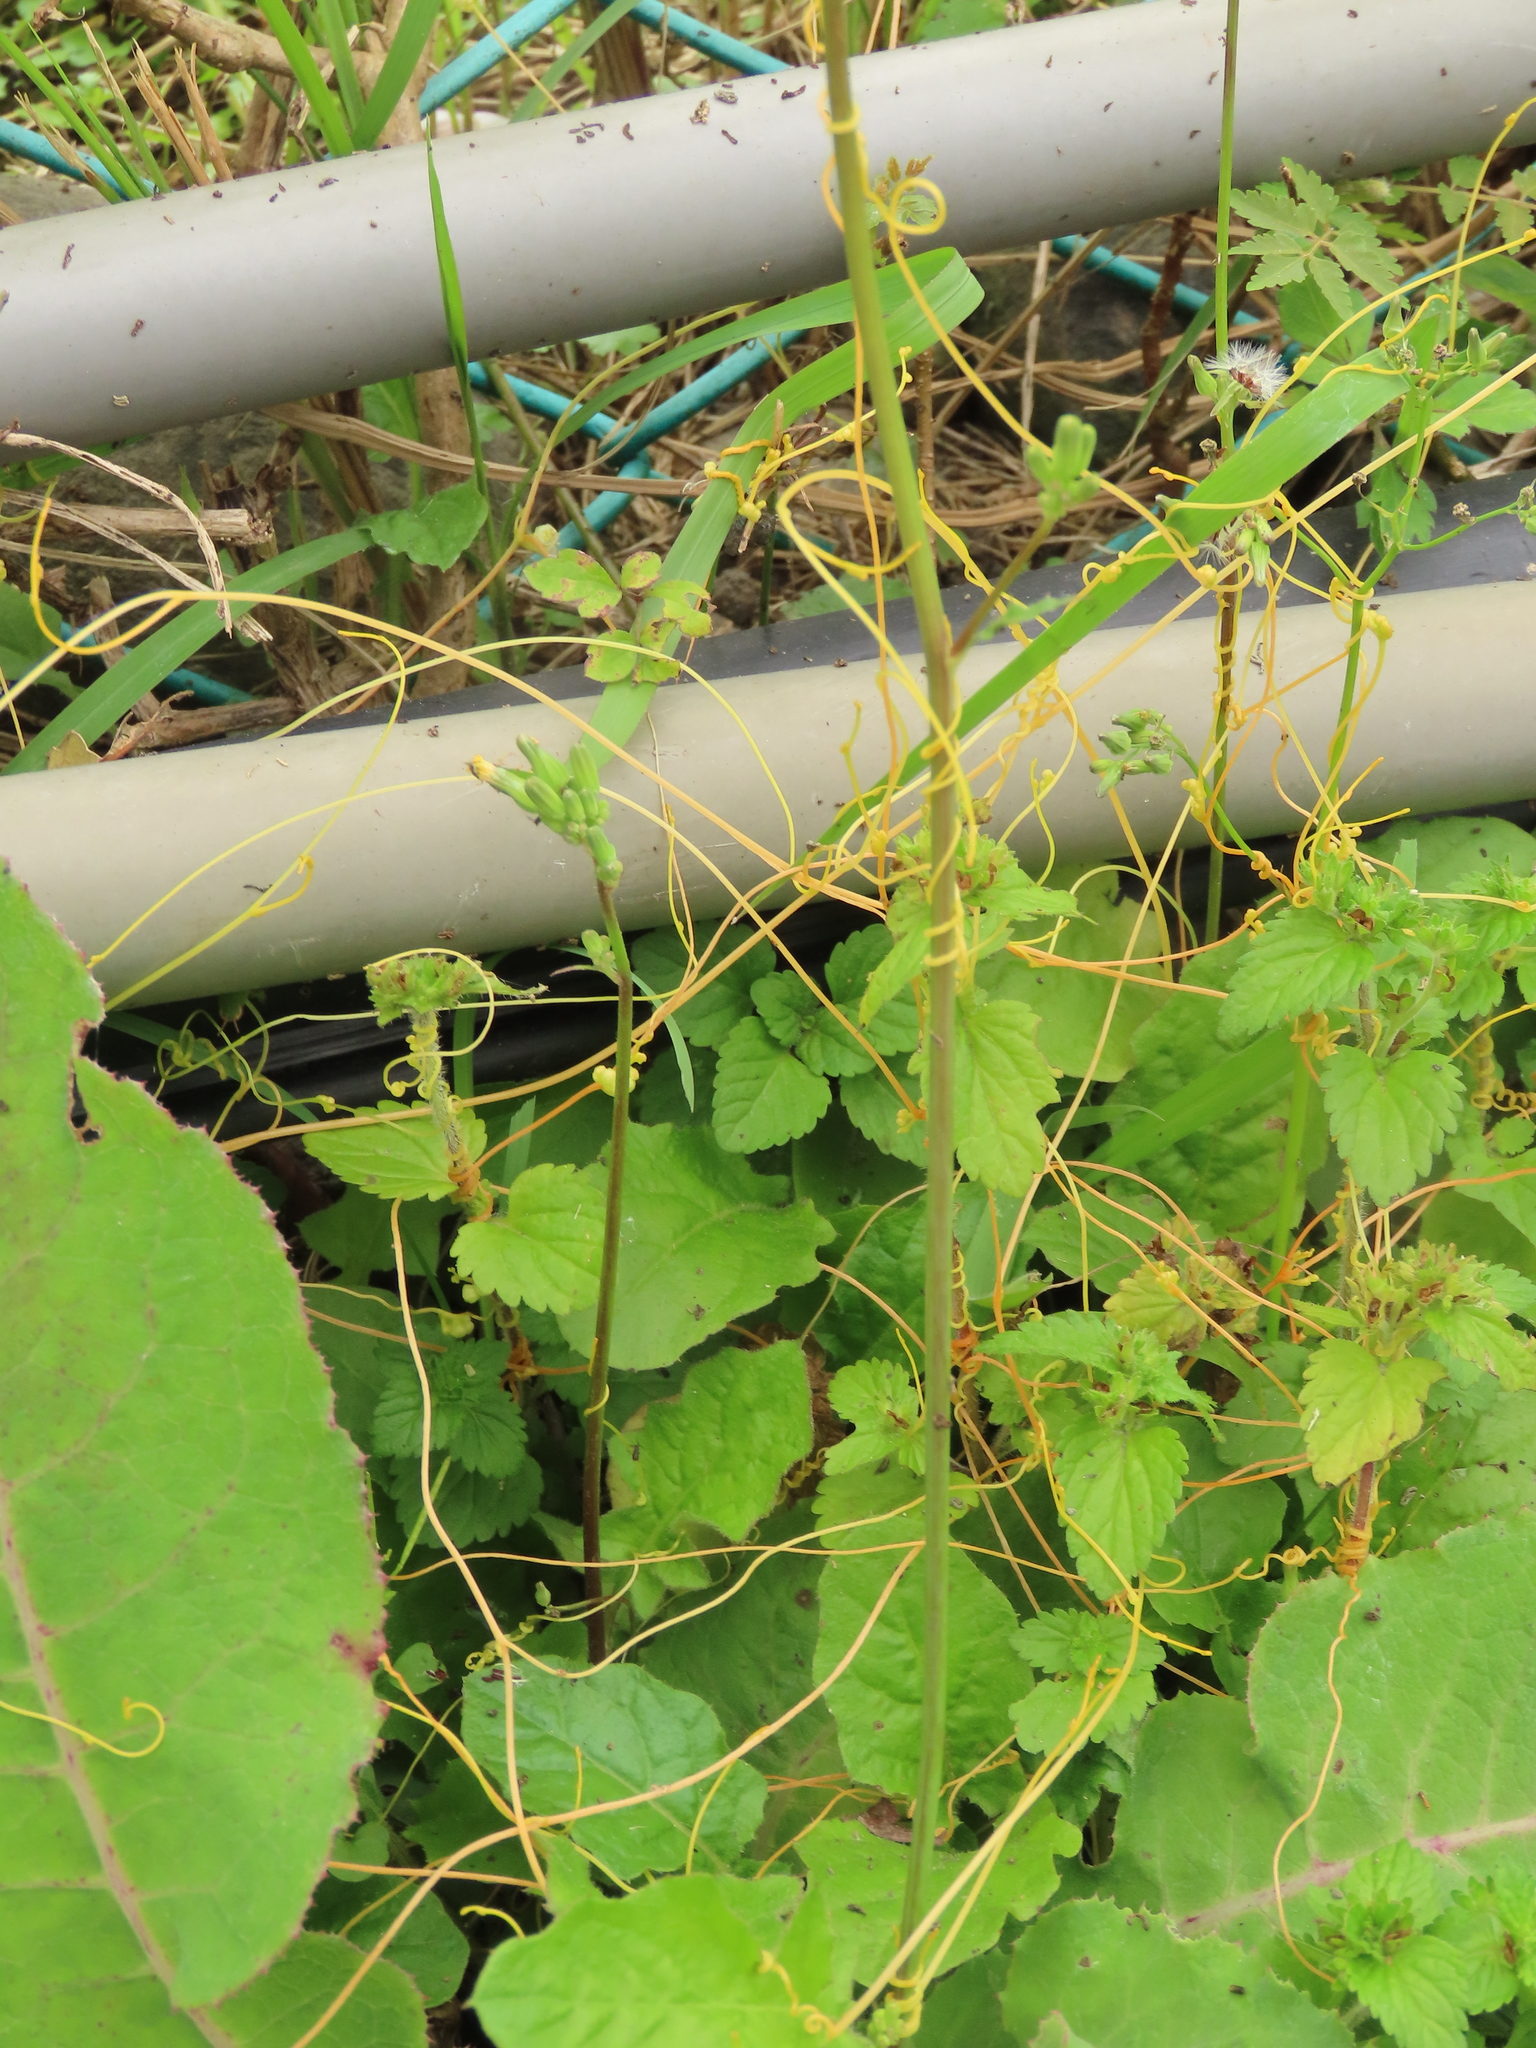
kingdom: Plantae
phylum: Tracheophyta
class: Magnoliopsida
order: Solanales
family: Convolvulaceae
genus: Cuscuta
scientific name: Cuscuta campestris
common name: Yellow dodder
